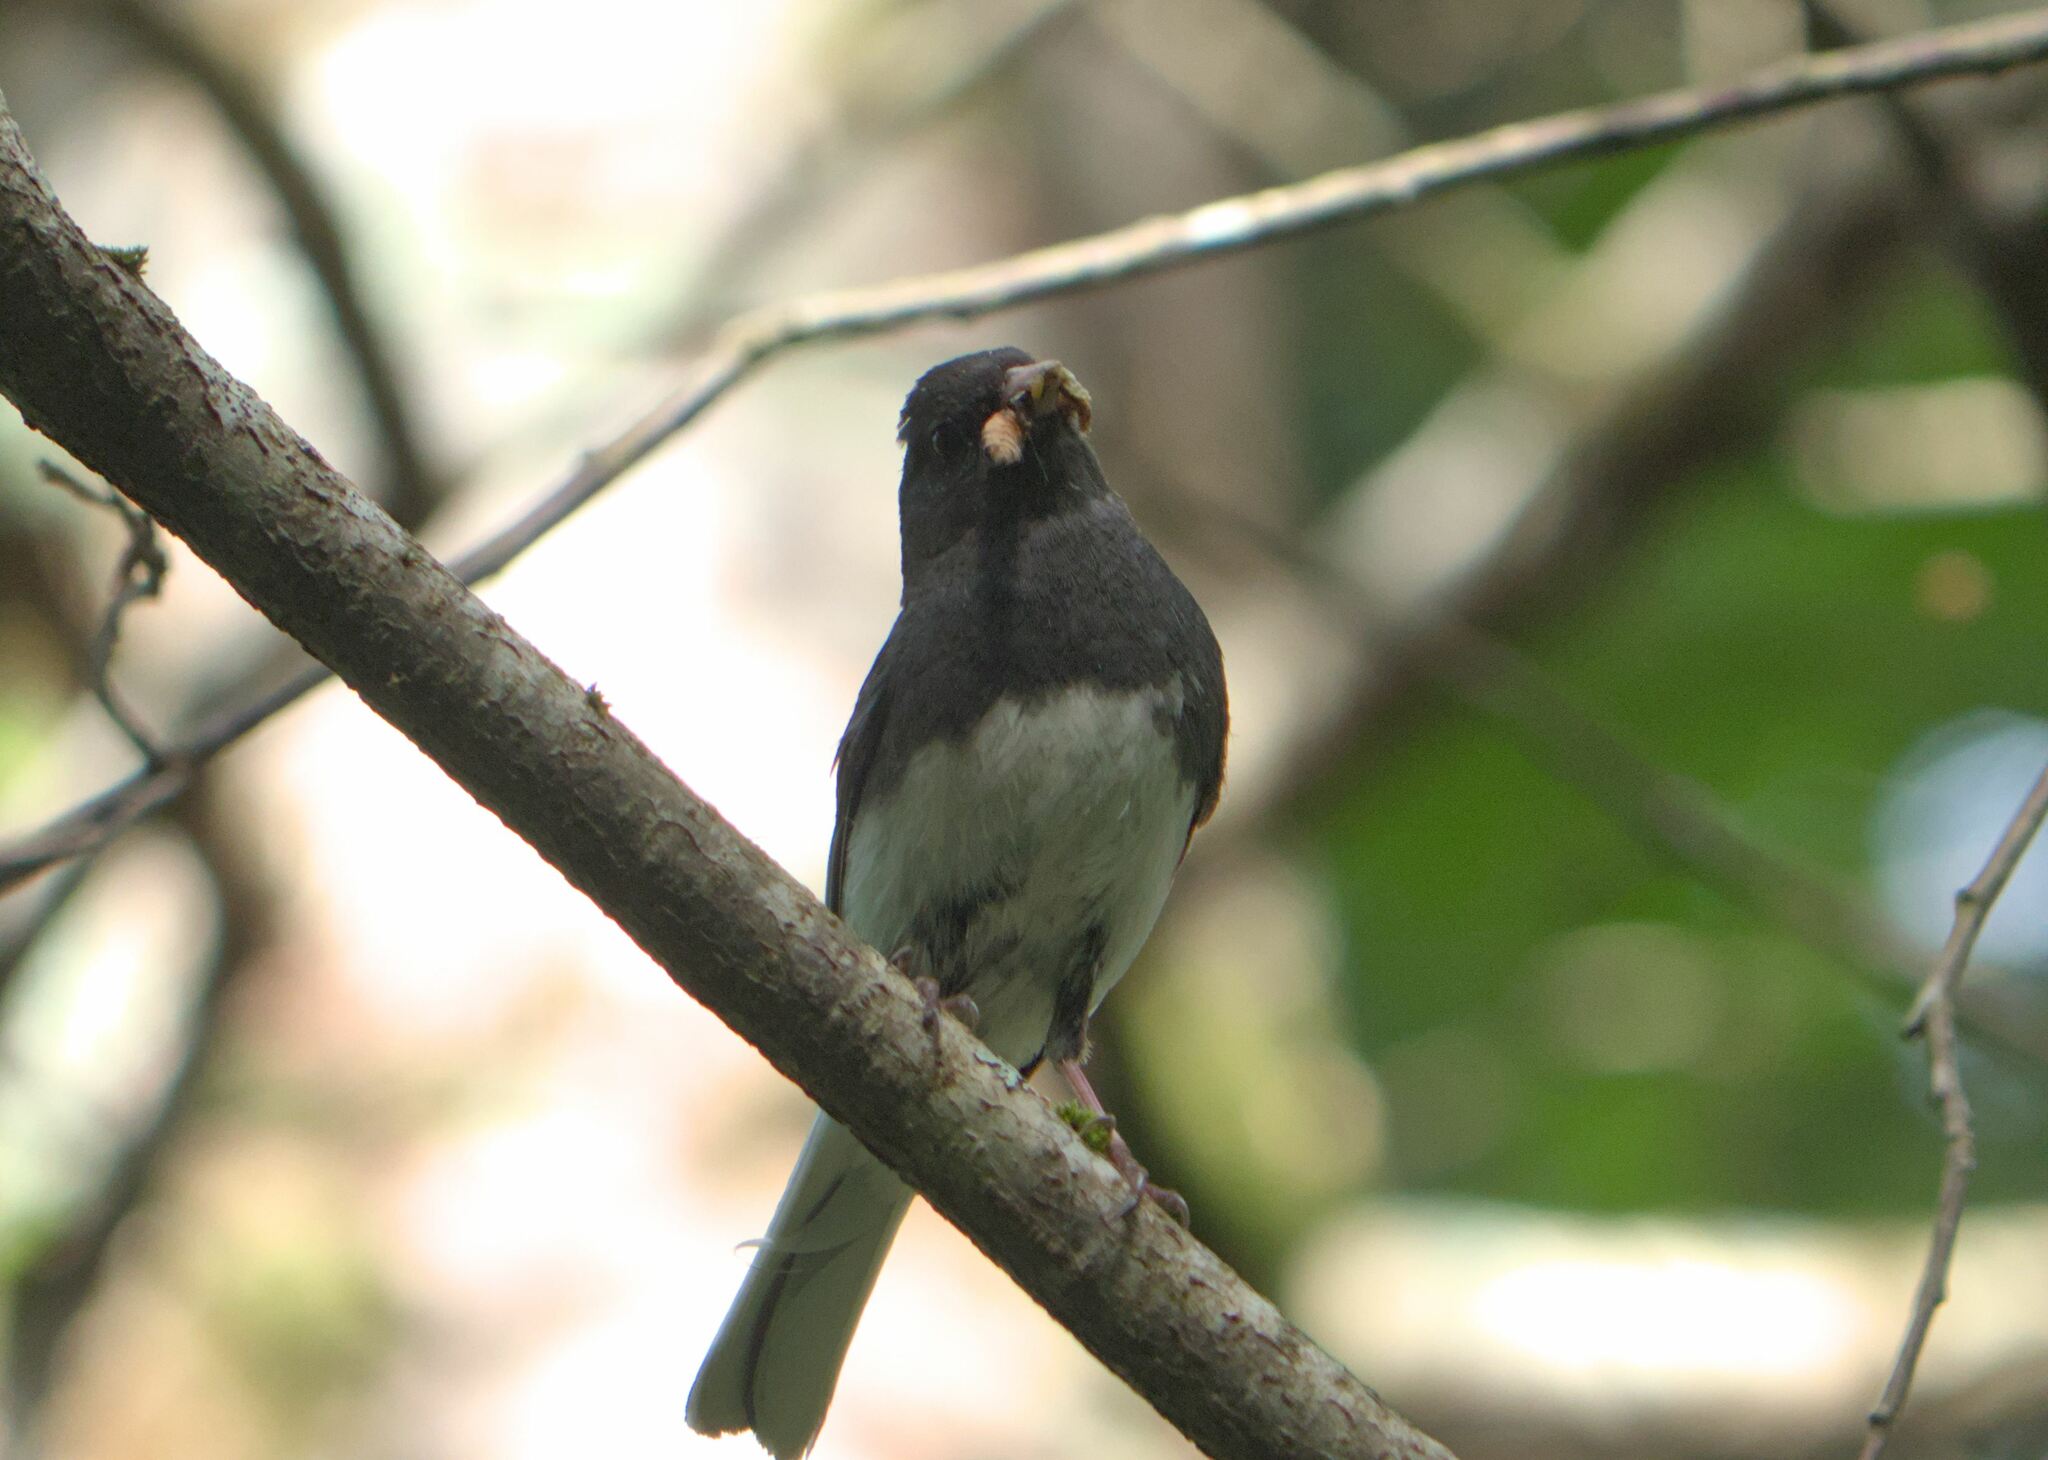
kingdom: Animalia
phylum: Chordata
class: Aves
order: Passeriformes
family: Passerellidae
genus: Junco
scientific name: Junco hyemalis
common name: Dark-eyed junco
